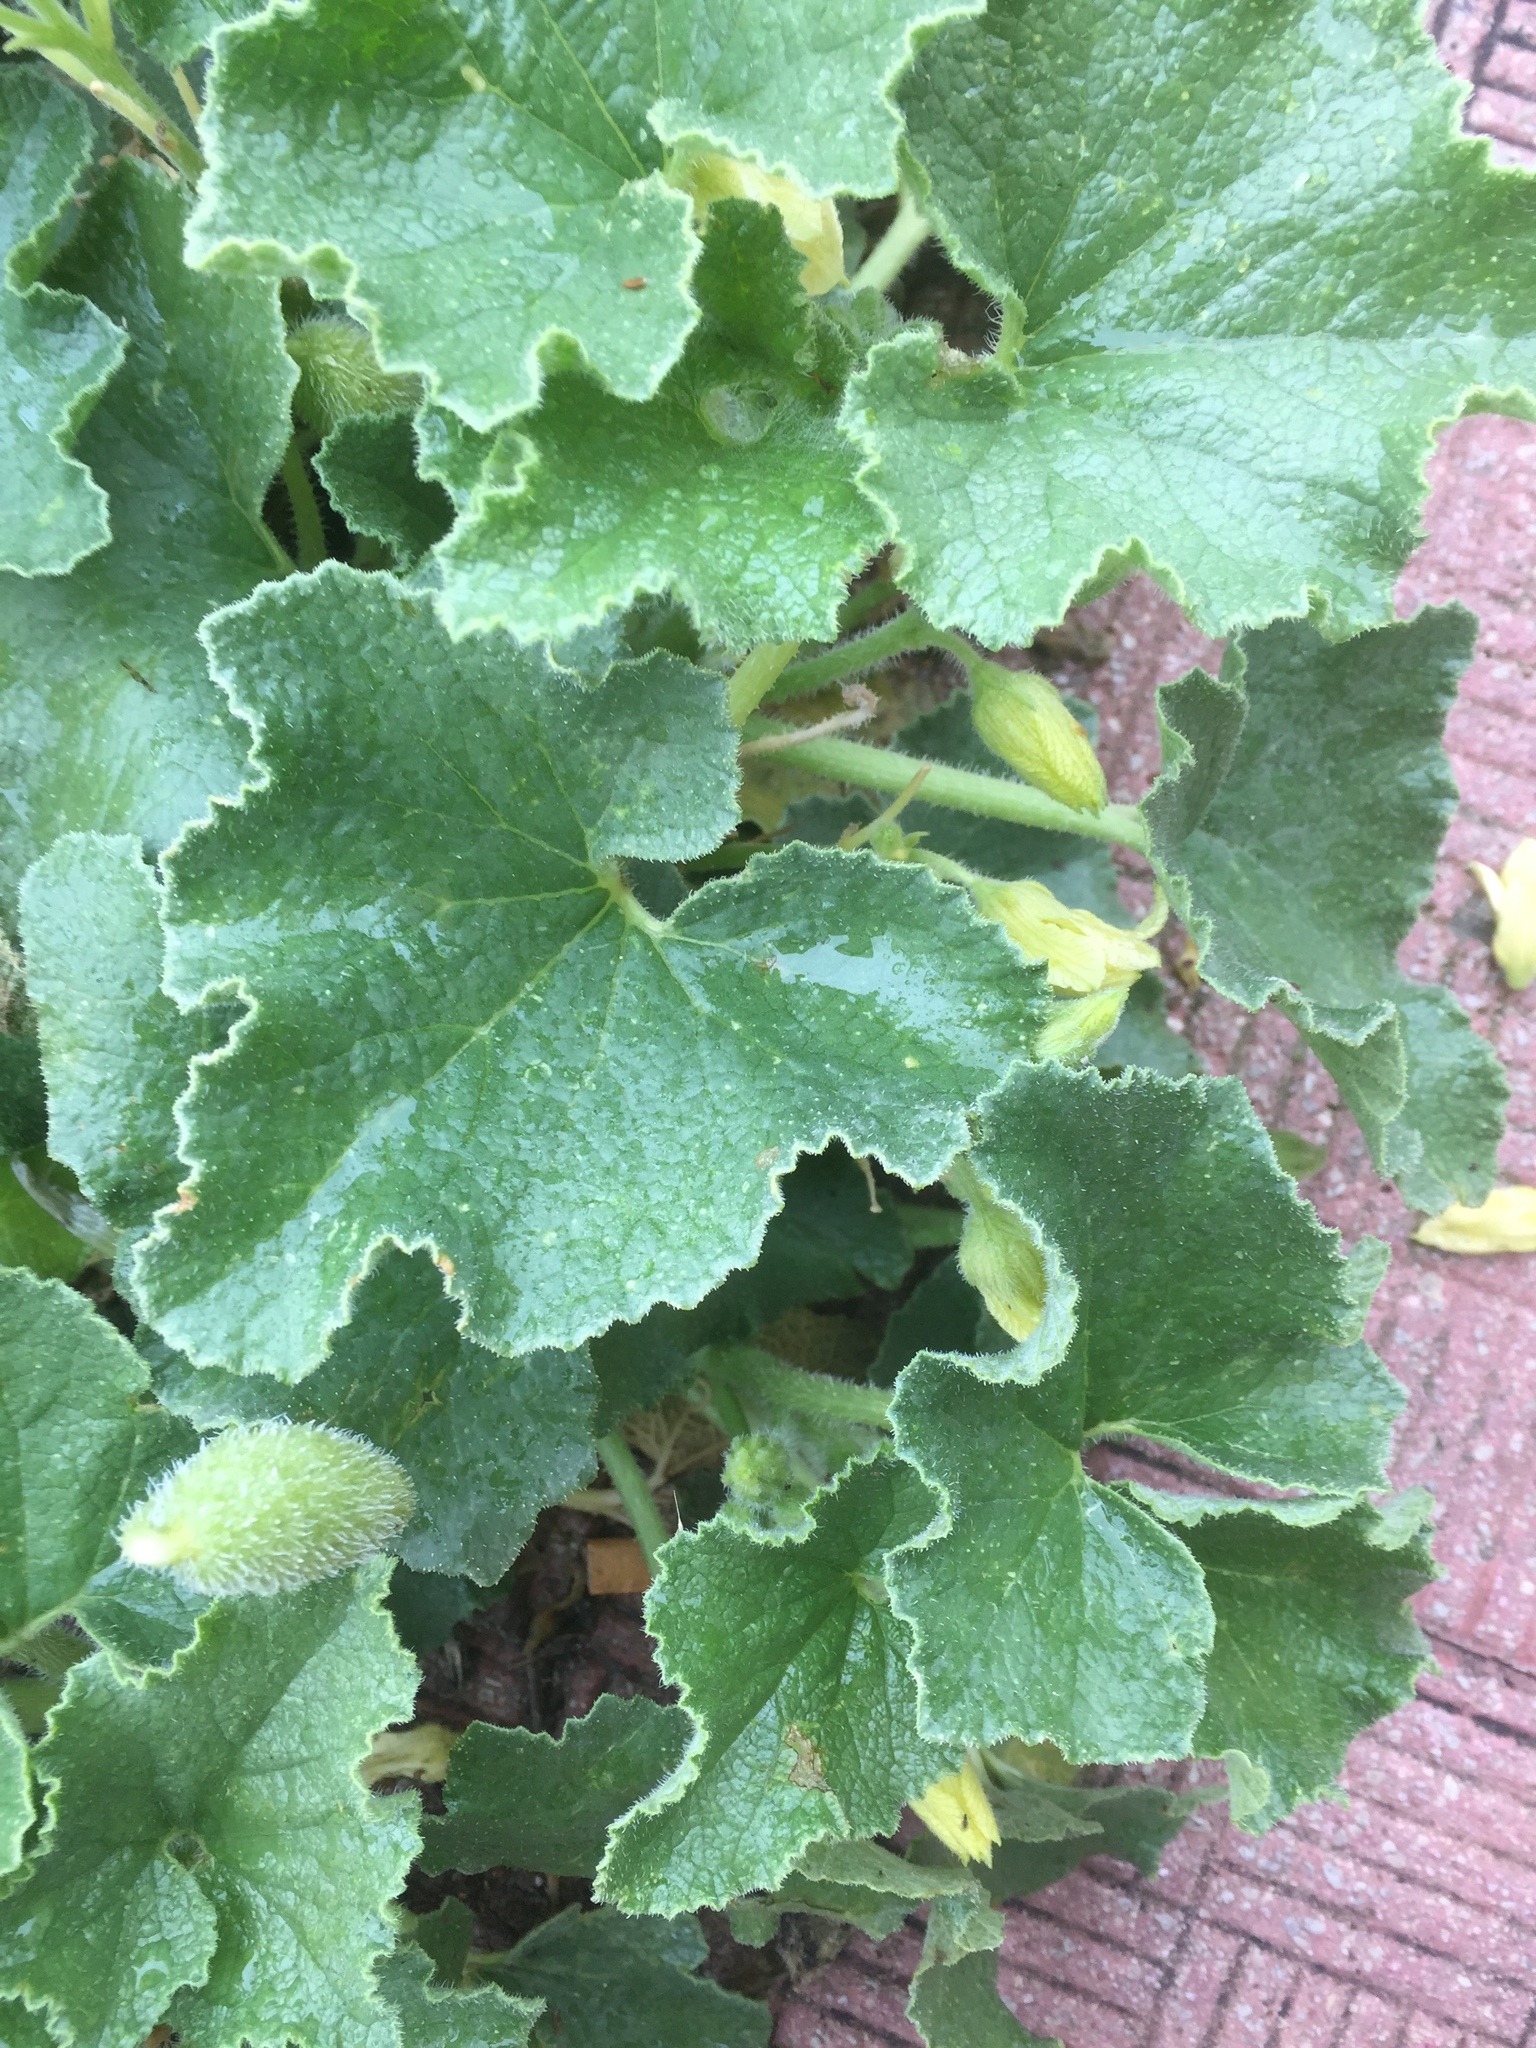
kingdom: Plantae
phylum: Tracheophyta
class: Magnoliopsida
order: Cucurbitales
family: Cucurbitaceae
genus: Ecballium
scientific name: Ecballium elaterium
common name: Squirting cucumber
